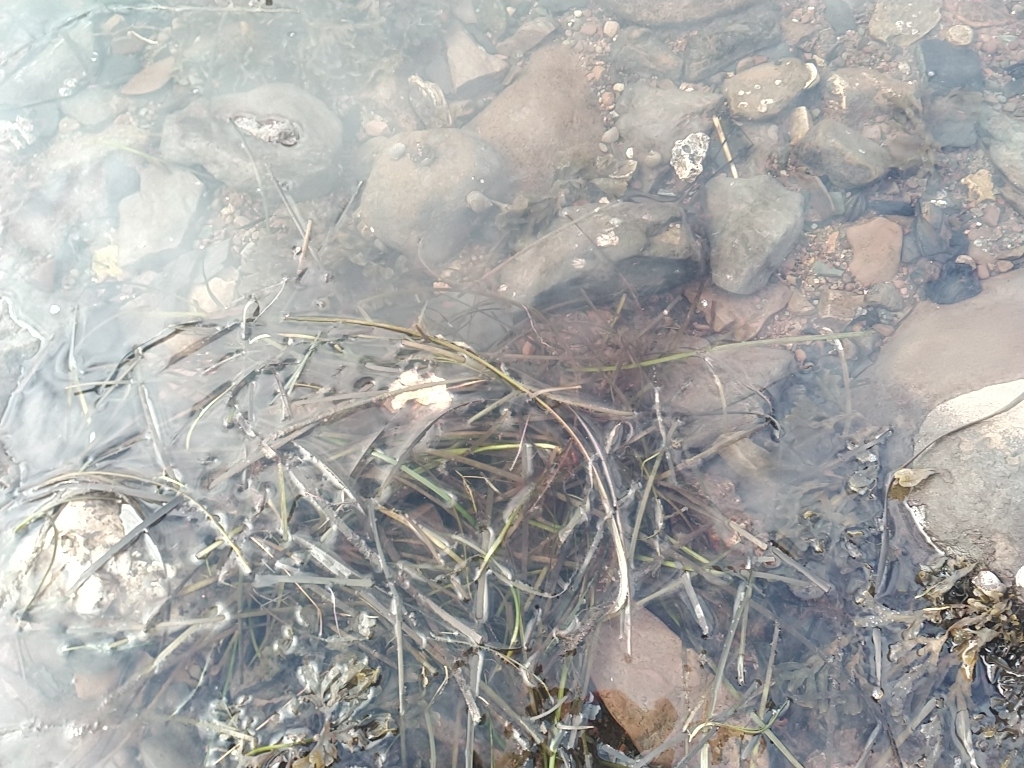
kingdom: Plantae
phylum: Tracheophyta
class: Liliopsida
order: Alismatales
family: Zosteraceae
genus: Zostera
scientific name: Zostera marina
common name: Eelgrass
